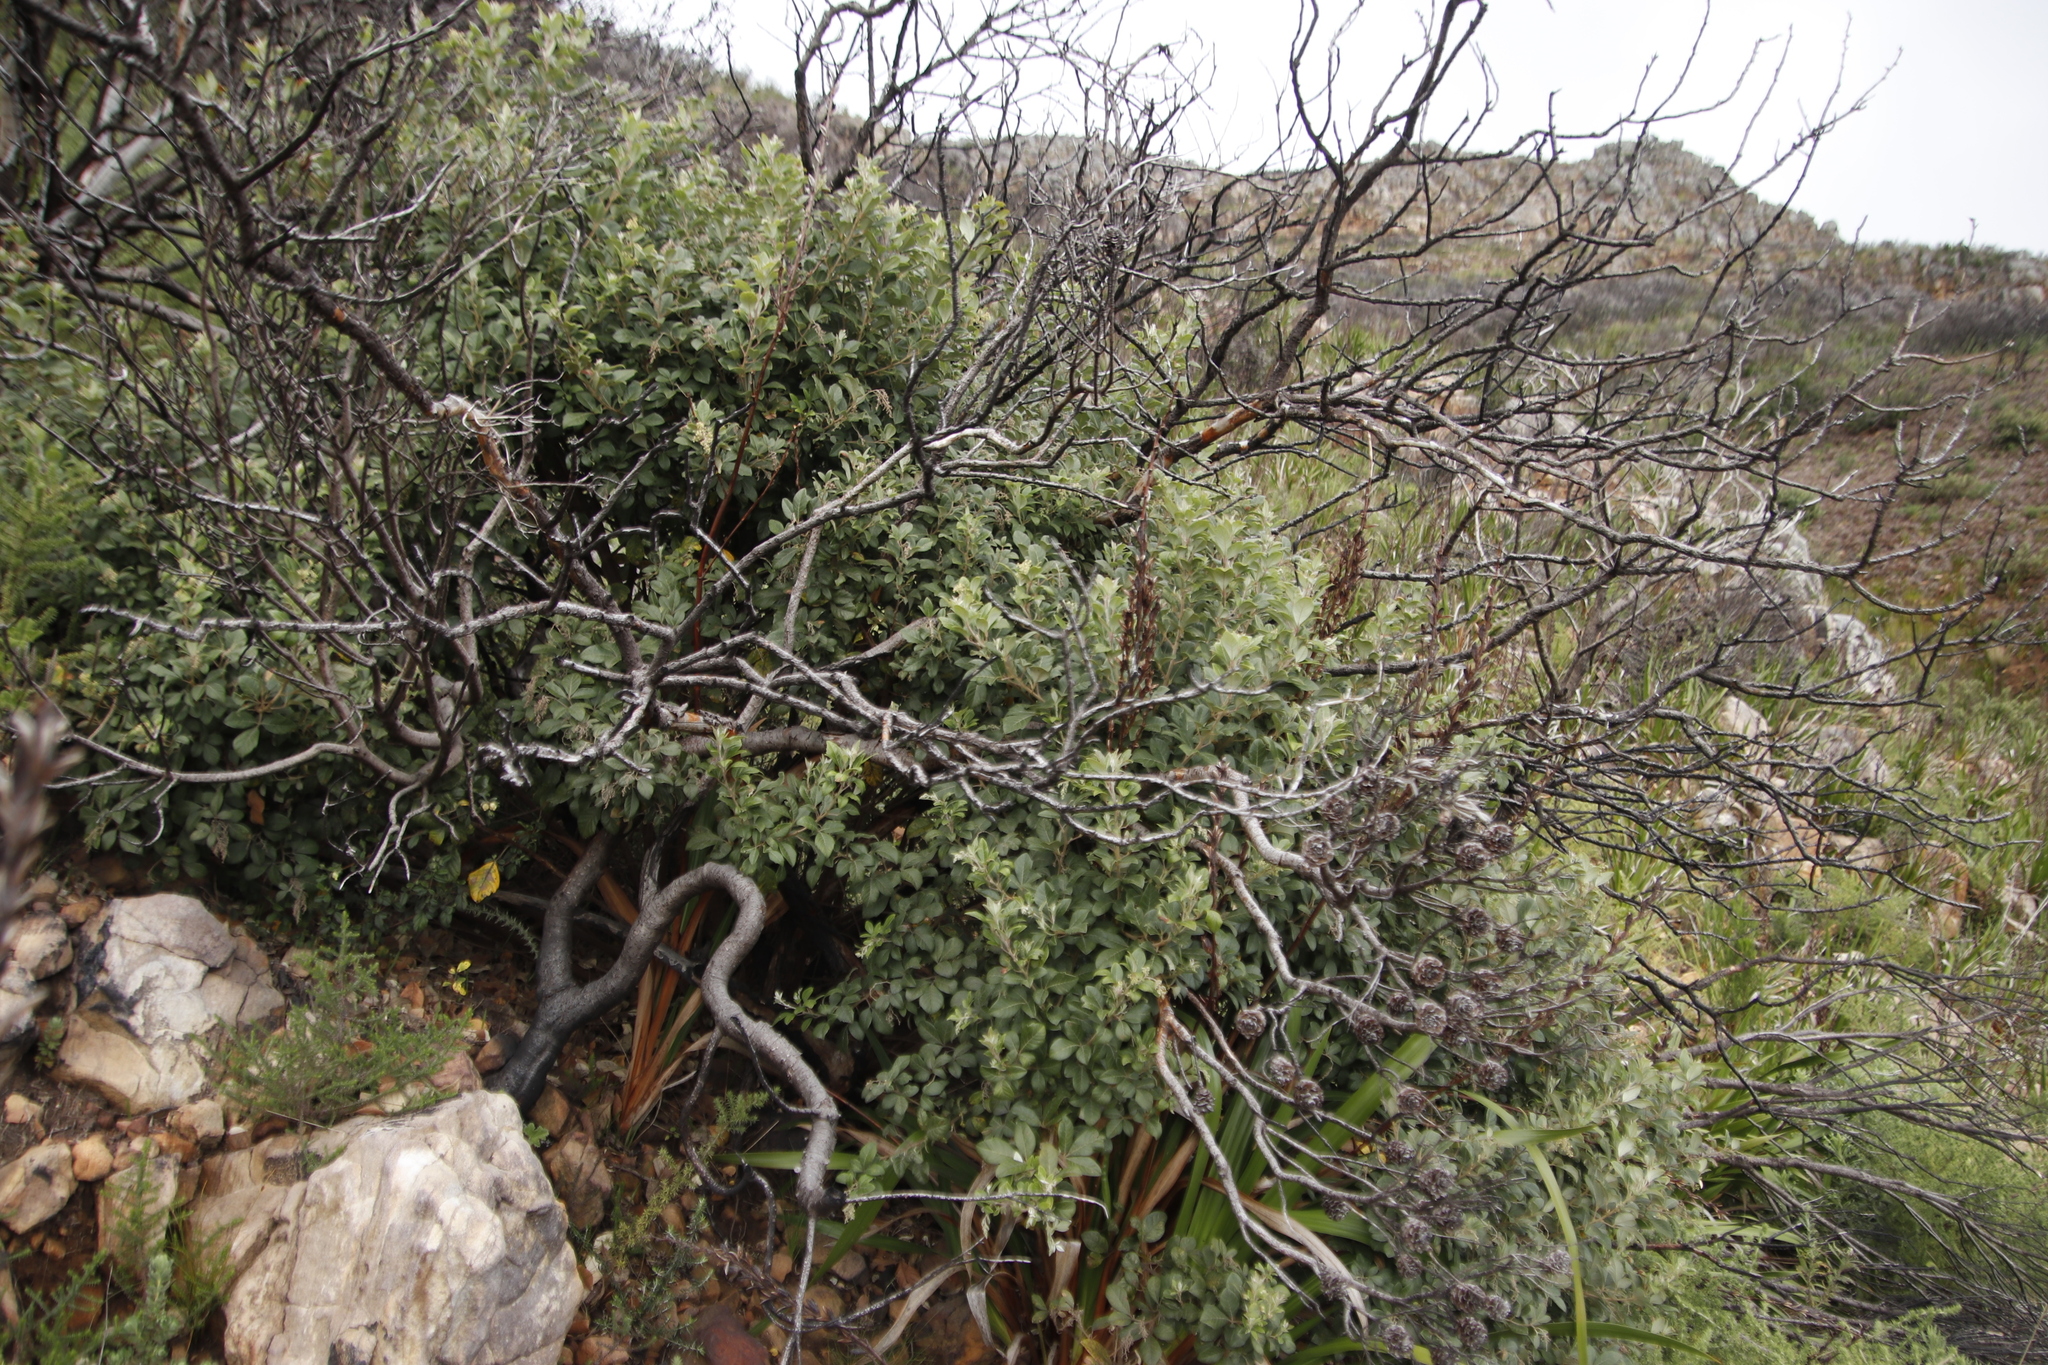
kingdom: Plantae
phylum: Tracheophyta
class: Magnoliopsida
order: Sapindales
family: Anacardiaceae
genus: Searsia
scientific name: Searsia tomentosa
